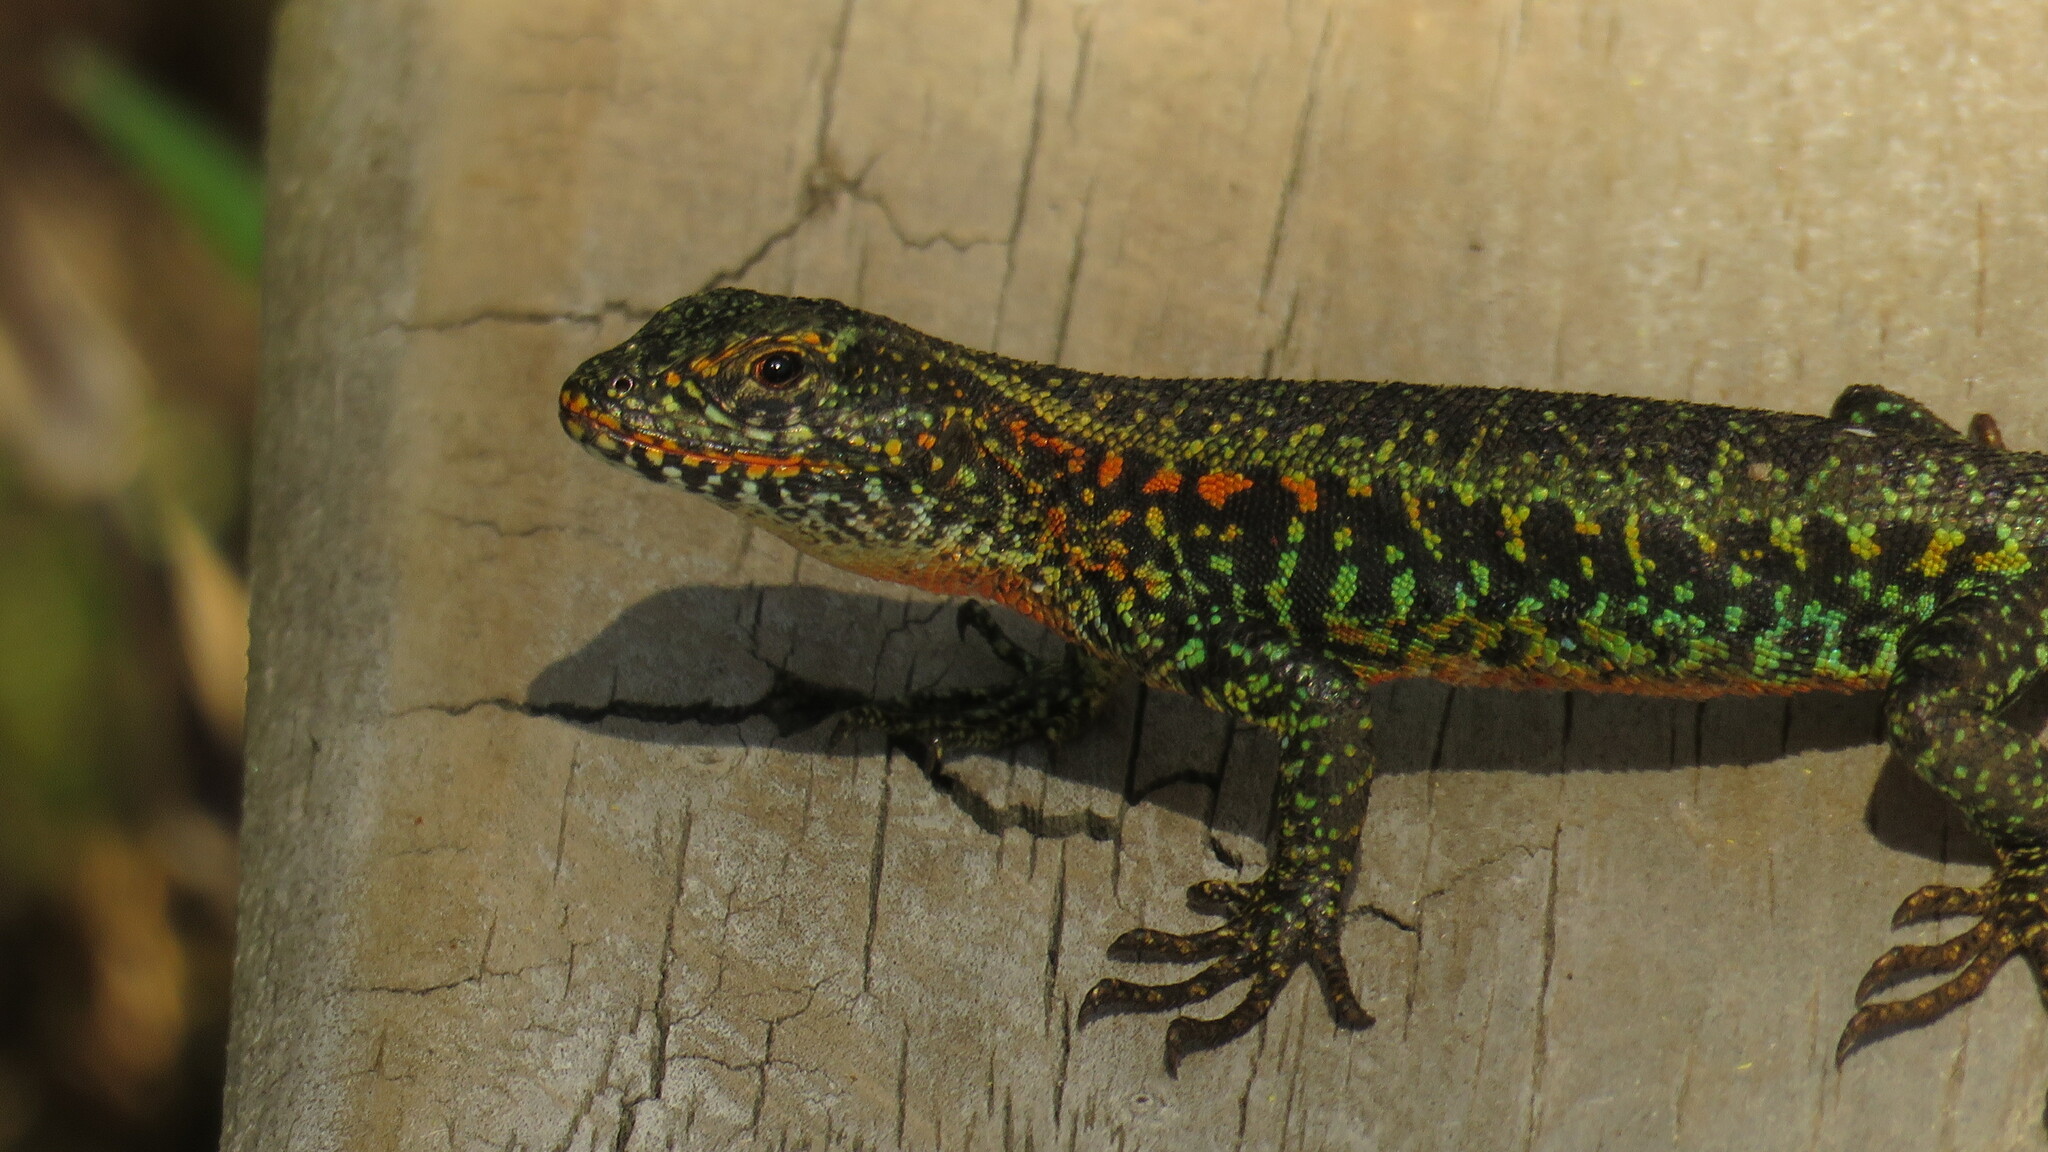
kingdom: Animalia
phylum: Chordata
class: Squamata
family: Liolaemidae
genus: Liolaemus
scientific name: Liolaemus pictus
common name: Painted tree iguana
